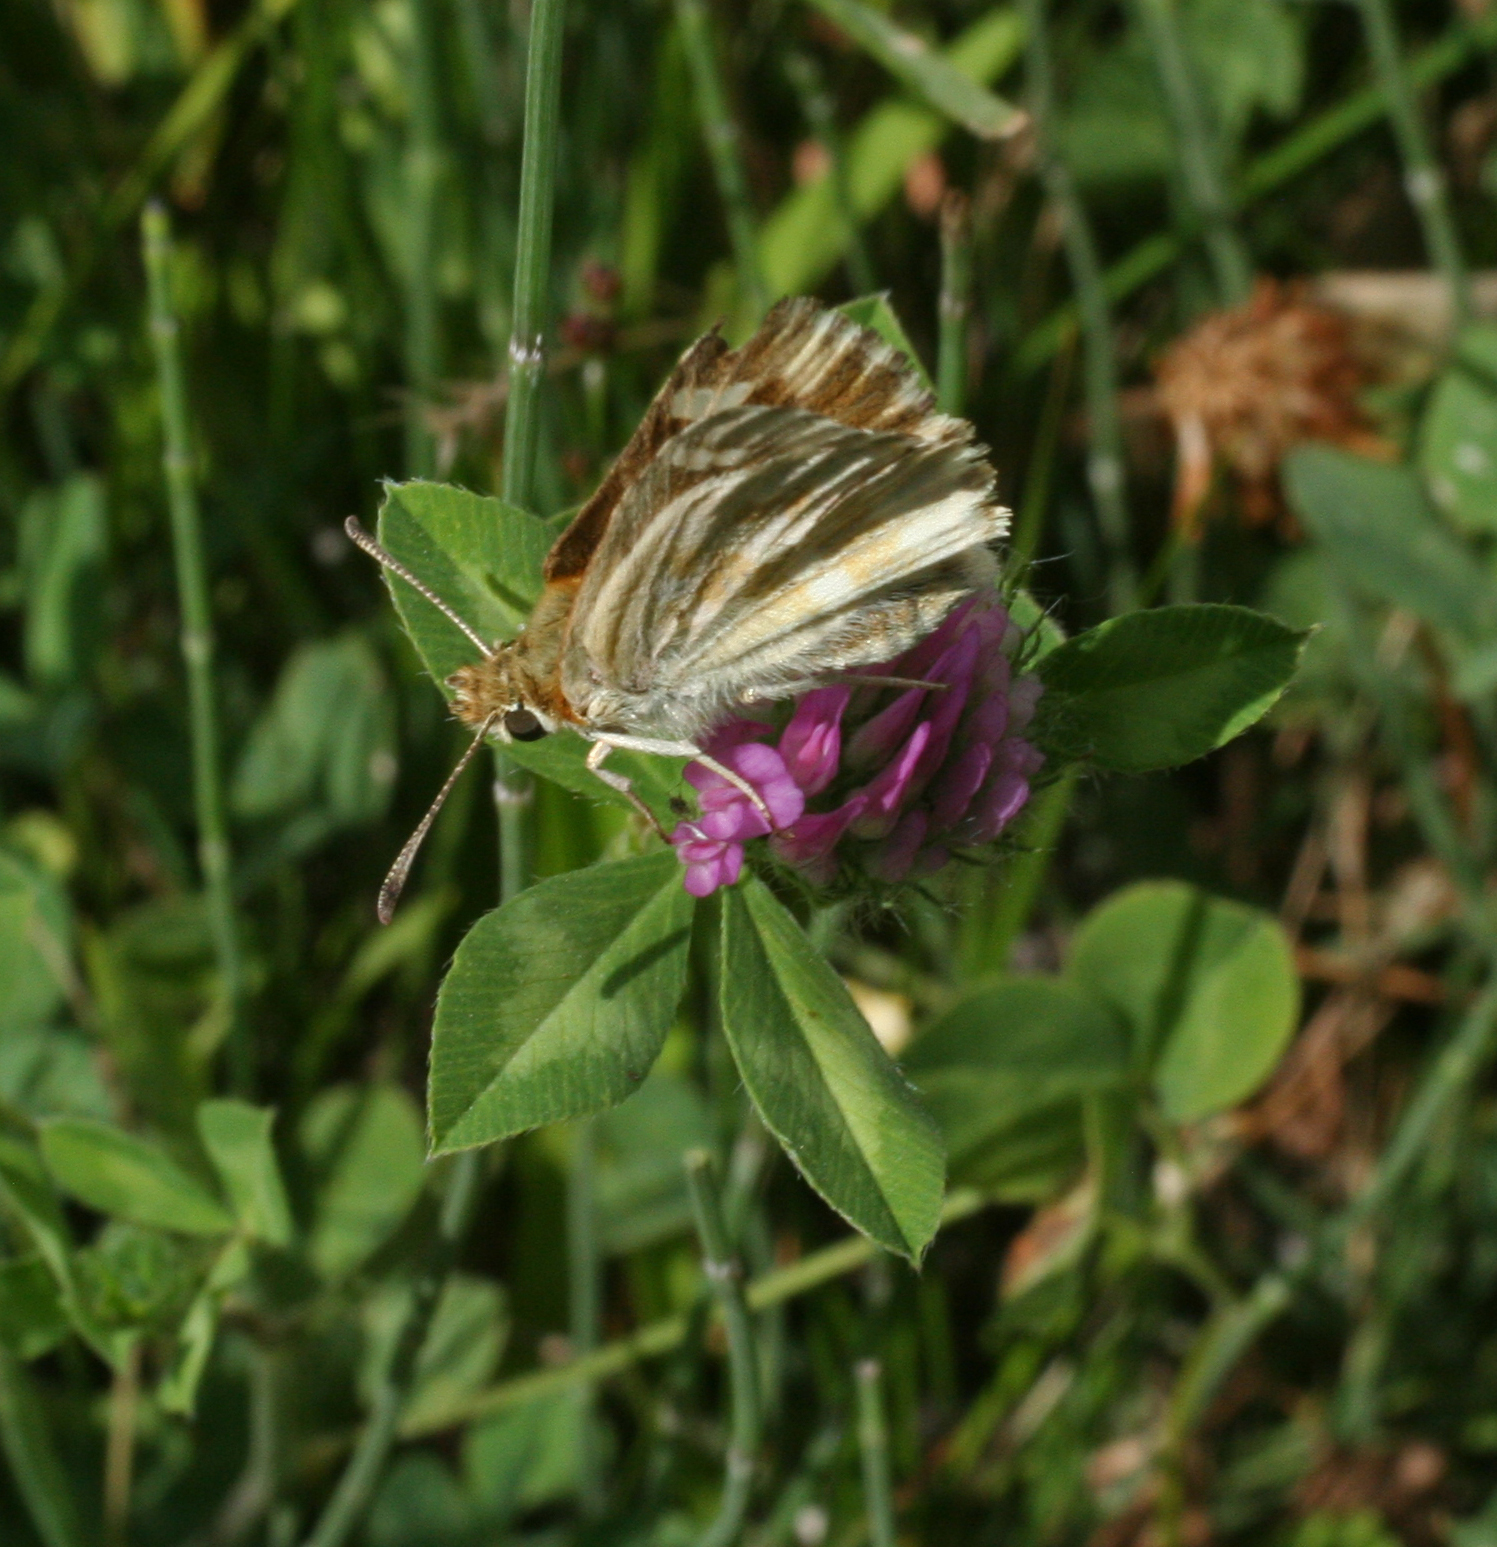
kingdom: Animalia
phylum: Arthropoda
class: Insecta
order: Lepidoptera
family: Hesperiidae
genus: Carcharodus
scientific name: Carcharodus lavatherae
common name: Marbled skipper
